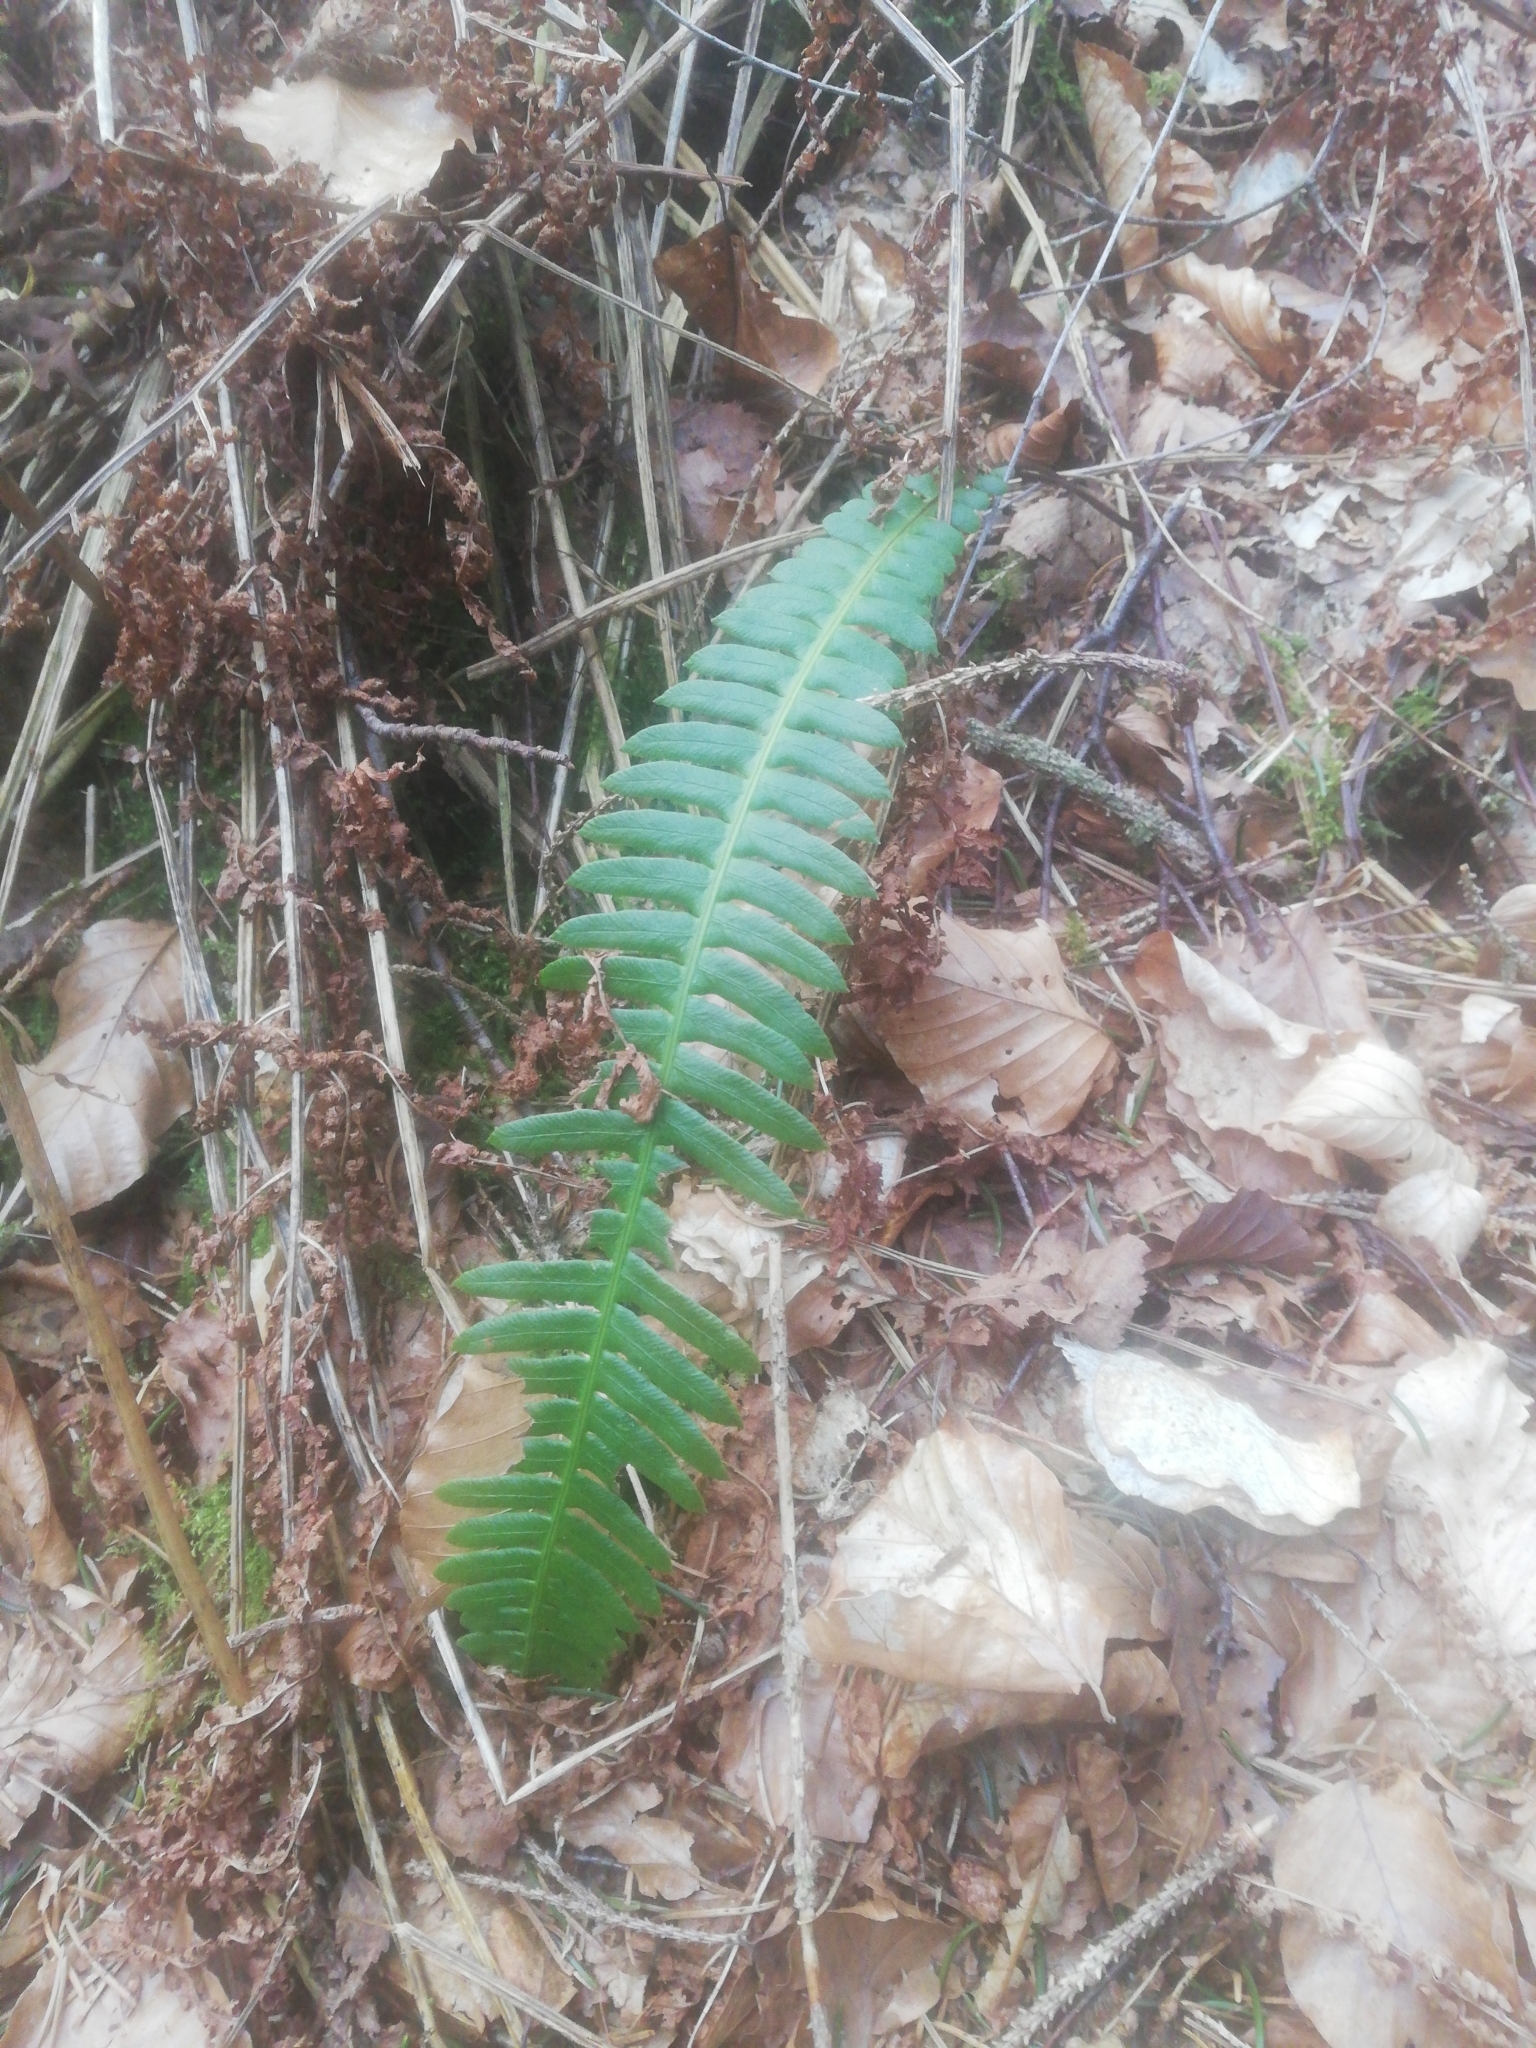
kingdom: Plantae
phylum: Tracheophyta
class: Polypodiopsida
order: Polypodiales
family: Blechnaceae
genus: Struthiopteris
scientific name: Struthiopteris spicant
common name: Deer fern
